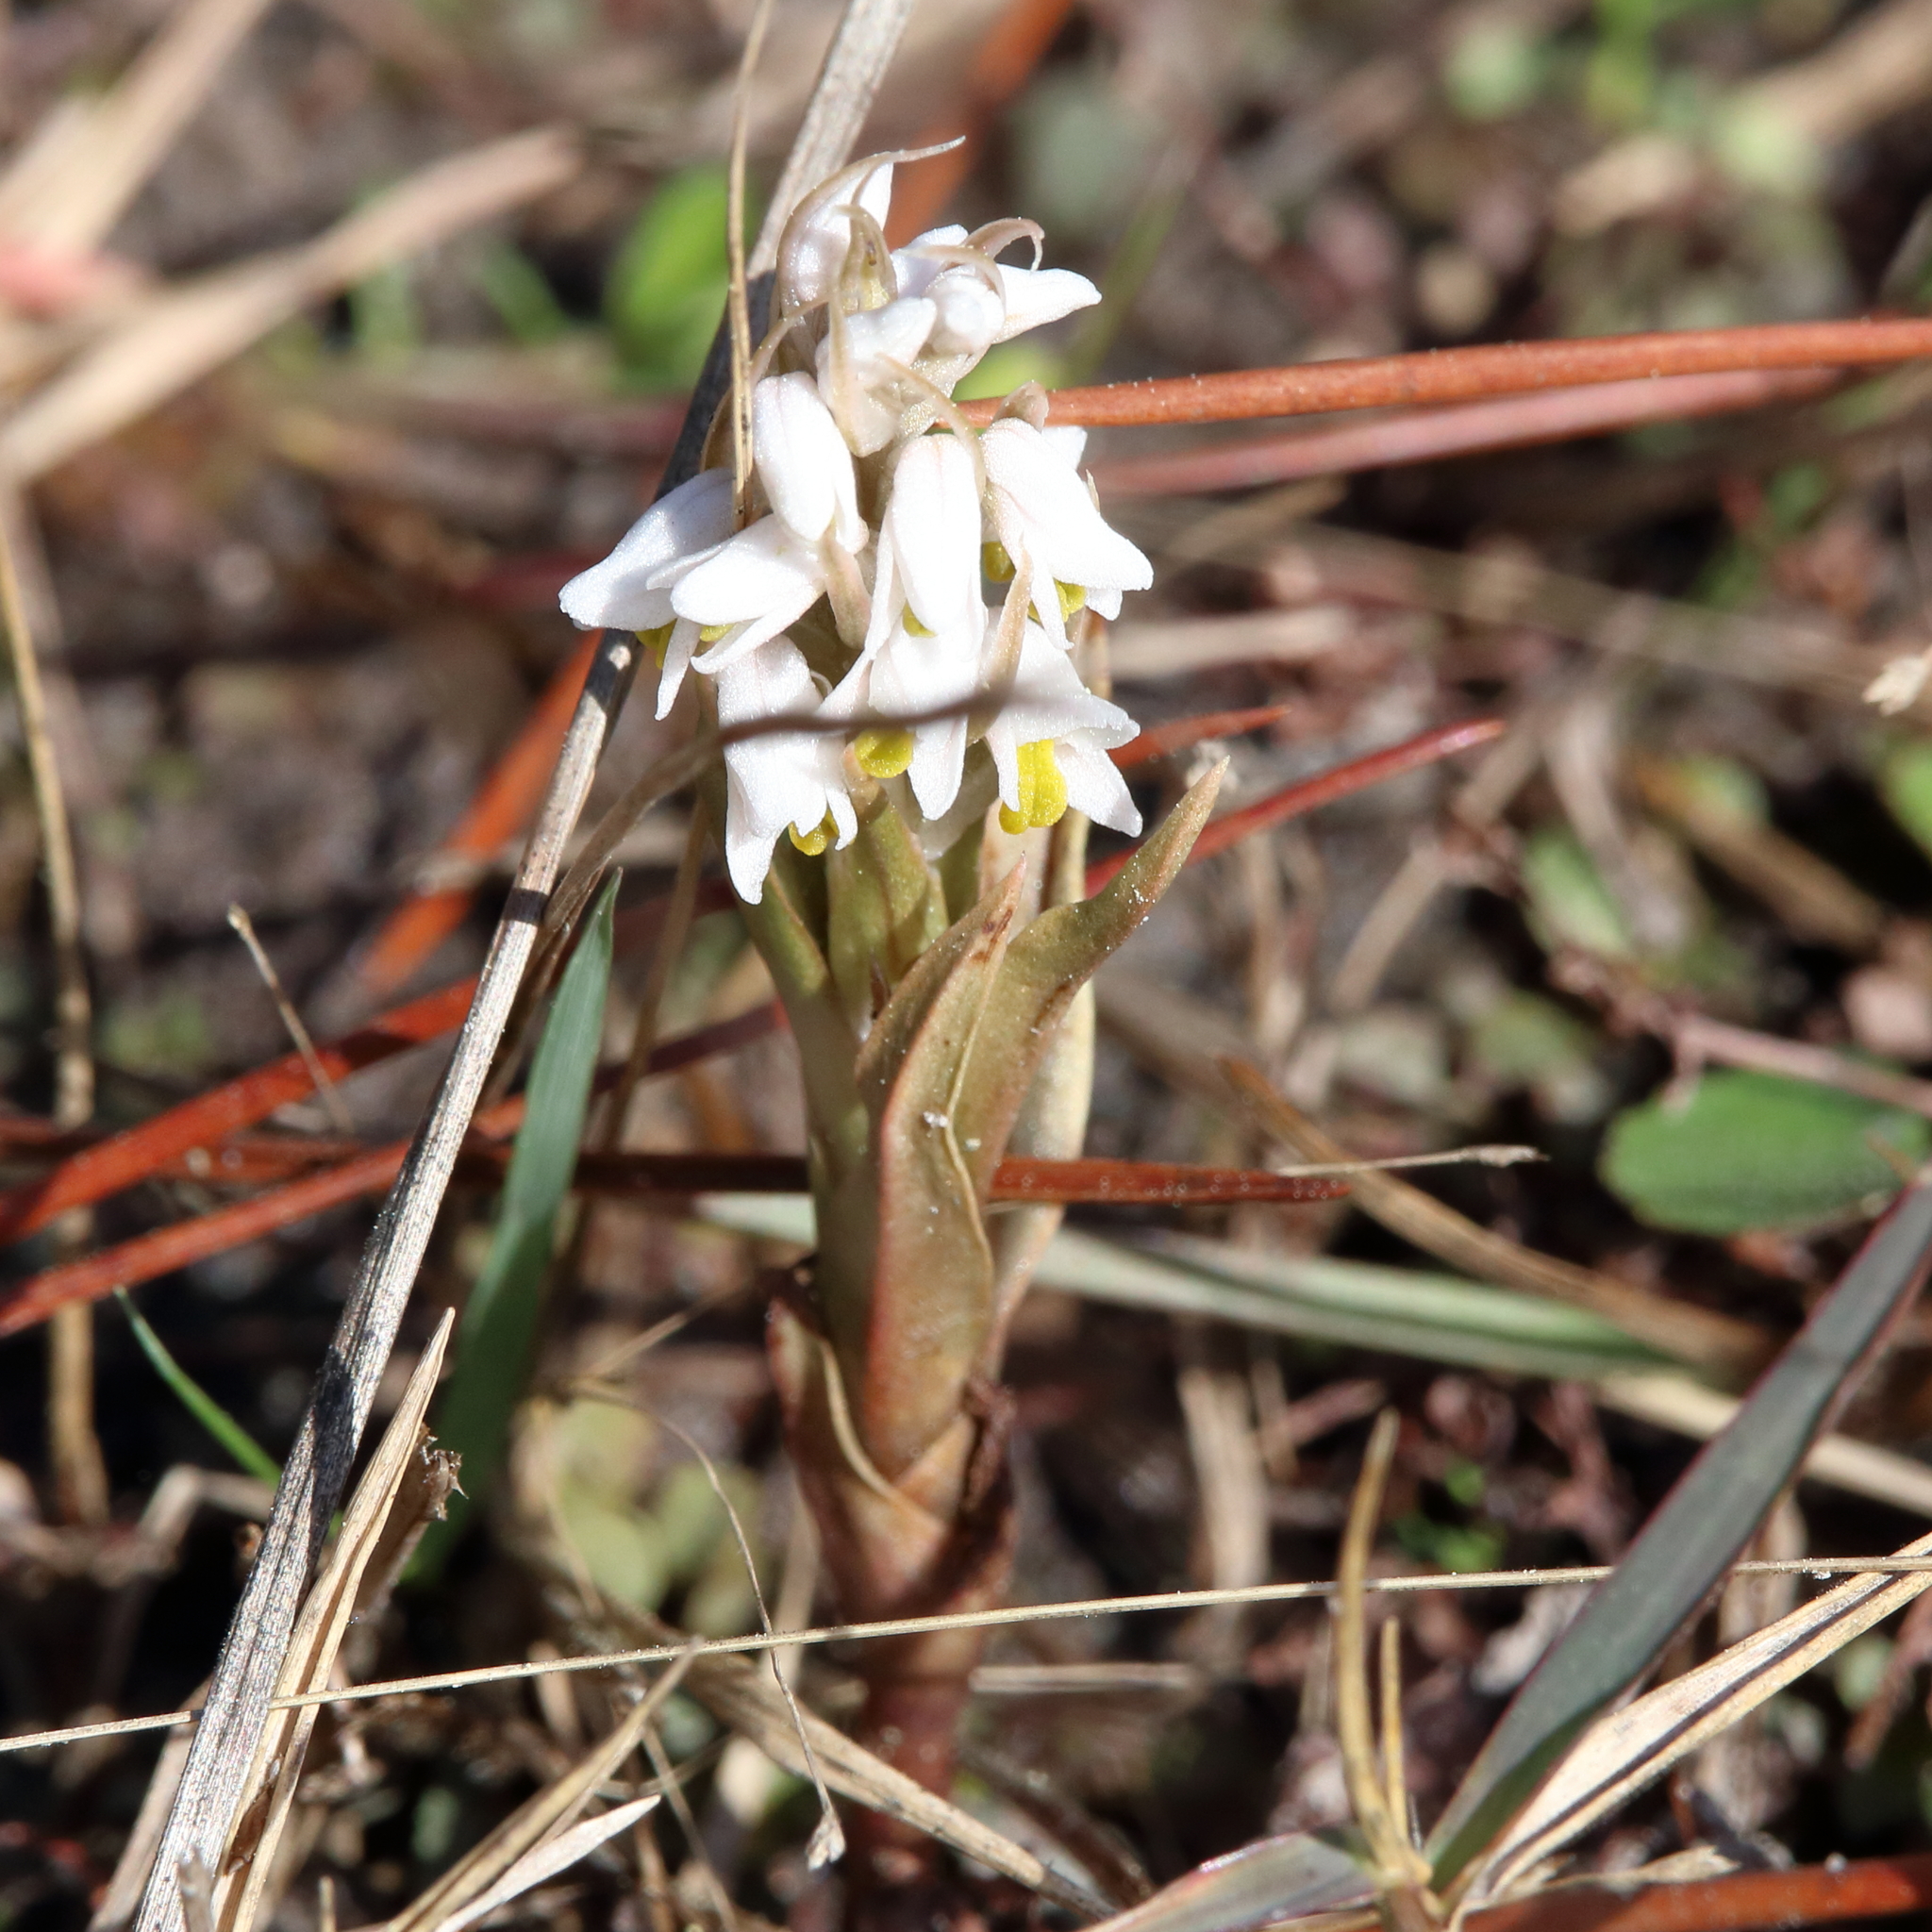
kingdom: Plantae
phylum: Tracheophyta
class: Liliopsida
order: Asparagales
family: Orchidaceae
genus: Zeuxine
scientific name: Zeuxine strateumatica
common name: Soldier's orchid
